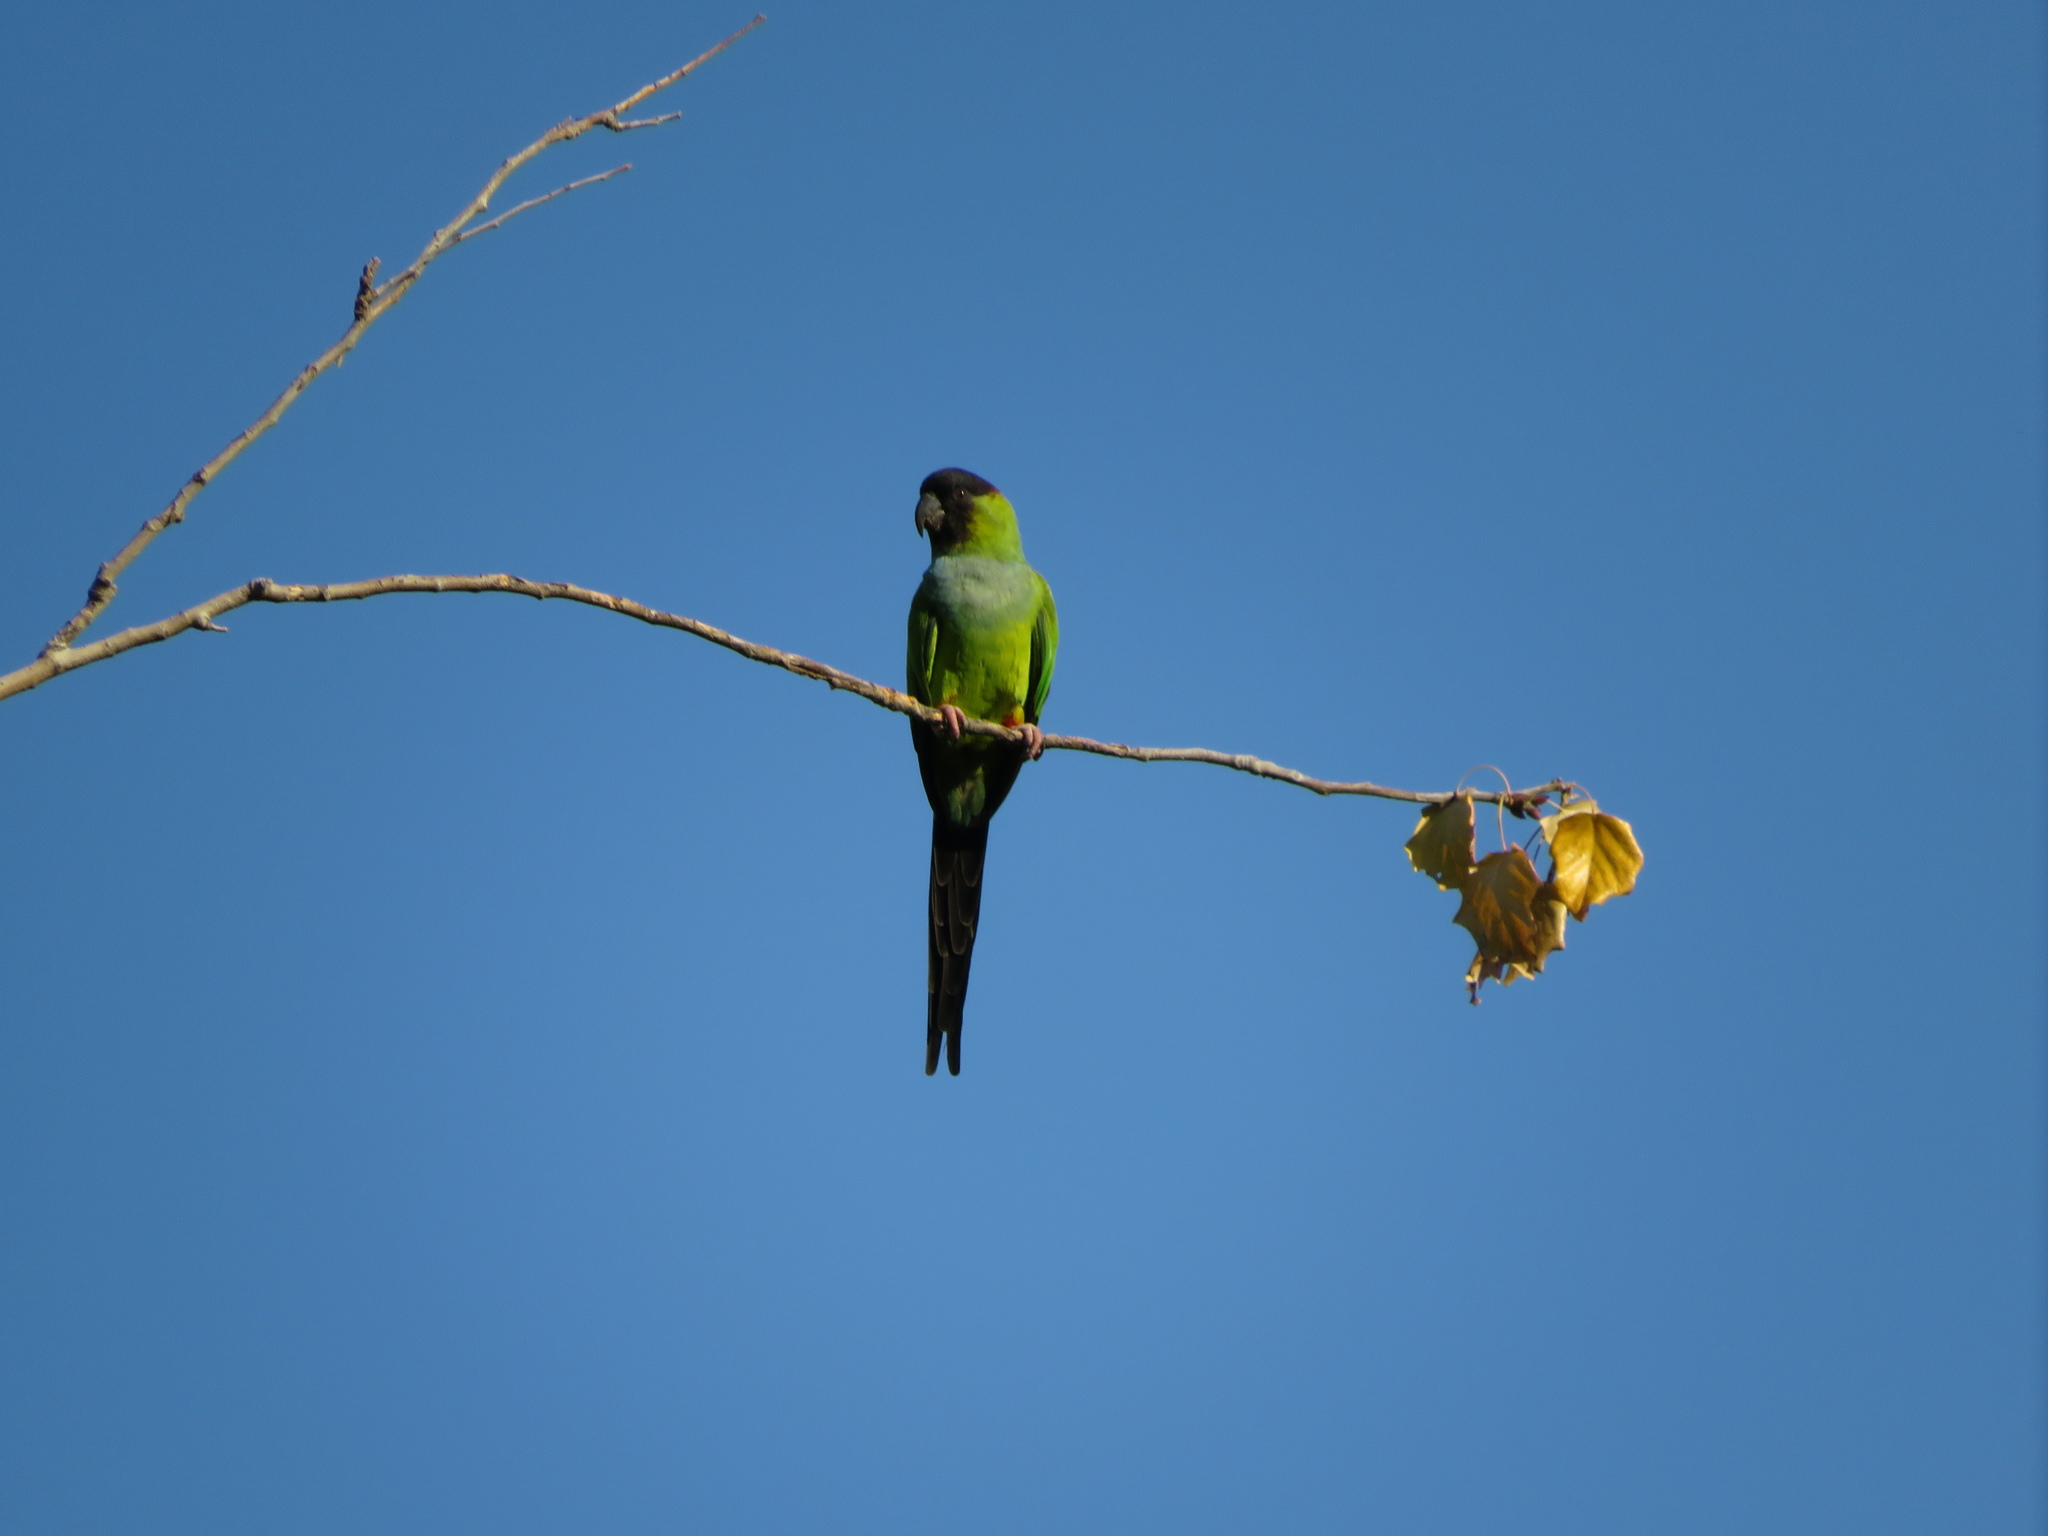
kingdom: Animalia
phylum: Chordata
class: Aves
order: Psittaciformes
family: Psittacidae
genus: Nandayus
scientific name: Nandayus nenday
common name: Nanday parakeet
